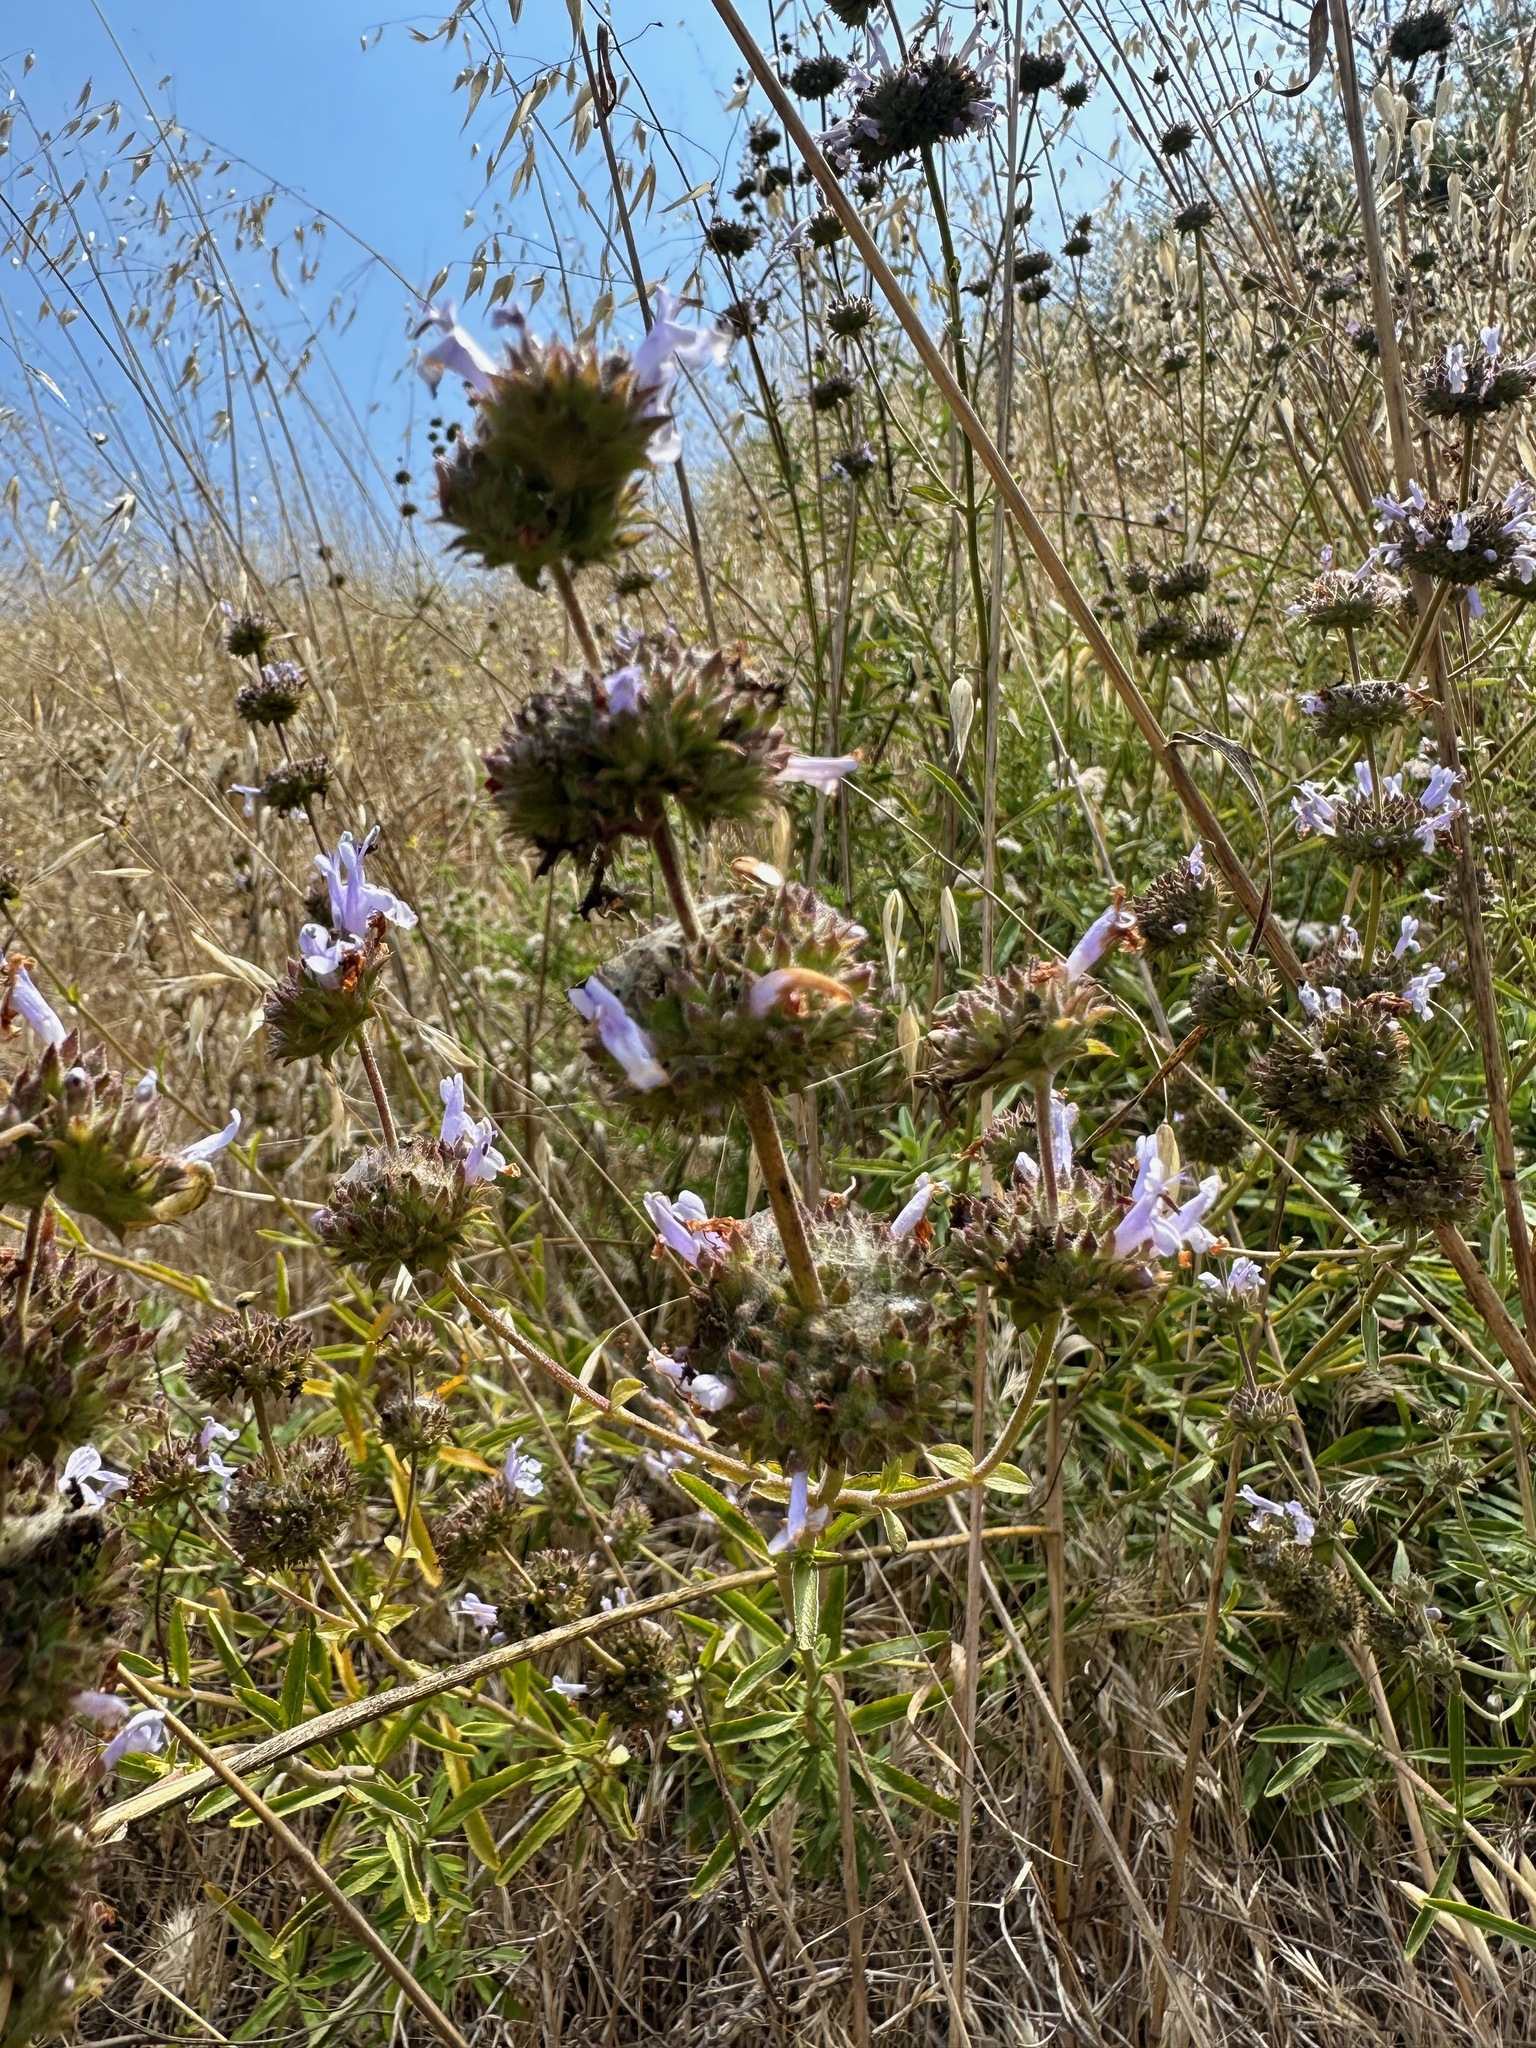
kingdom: Plantae
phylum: Tracheophyta
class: Magnoliopsida
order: Lamiales
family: Lamiaceae
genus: Salvia
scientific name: Salvia mellifera
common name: Black sage
